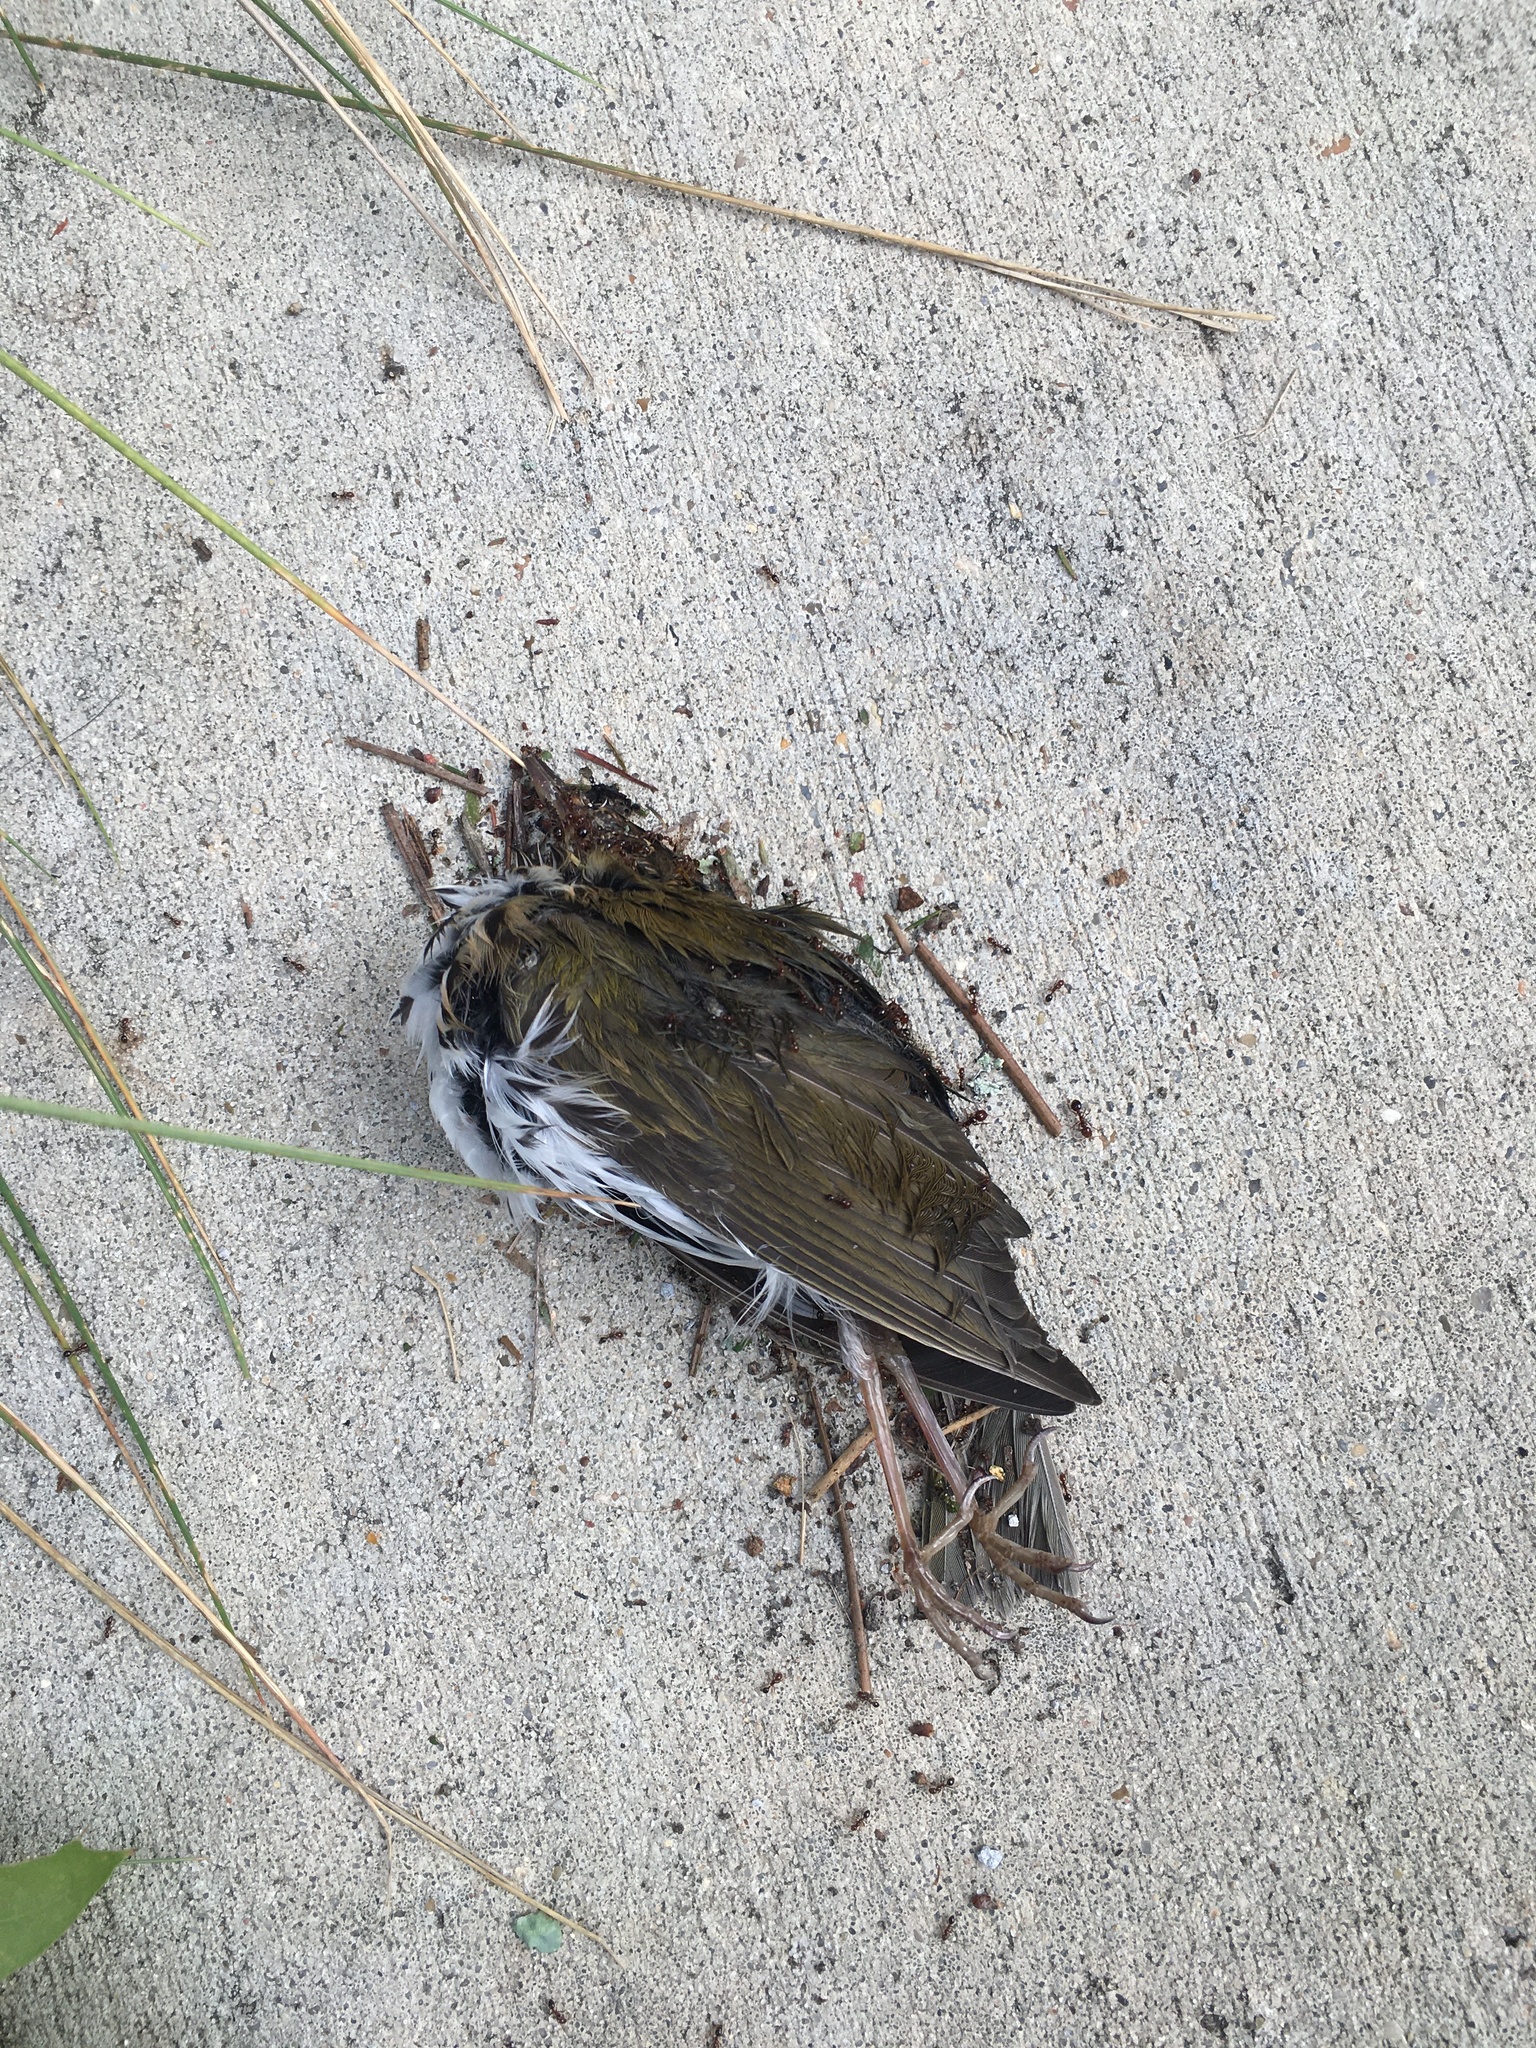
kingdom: Animalia
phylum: Chordata
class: Aves
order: Passeriformes
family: Parulidae
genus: Seiurus
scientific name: Seiurus aurocapilla
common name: Ovenbird
